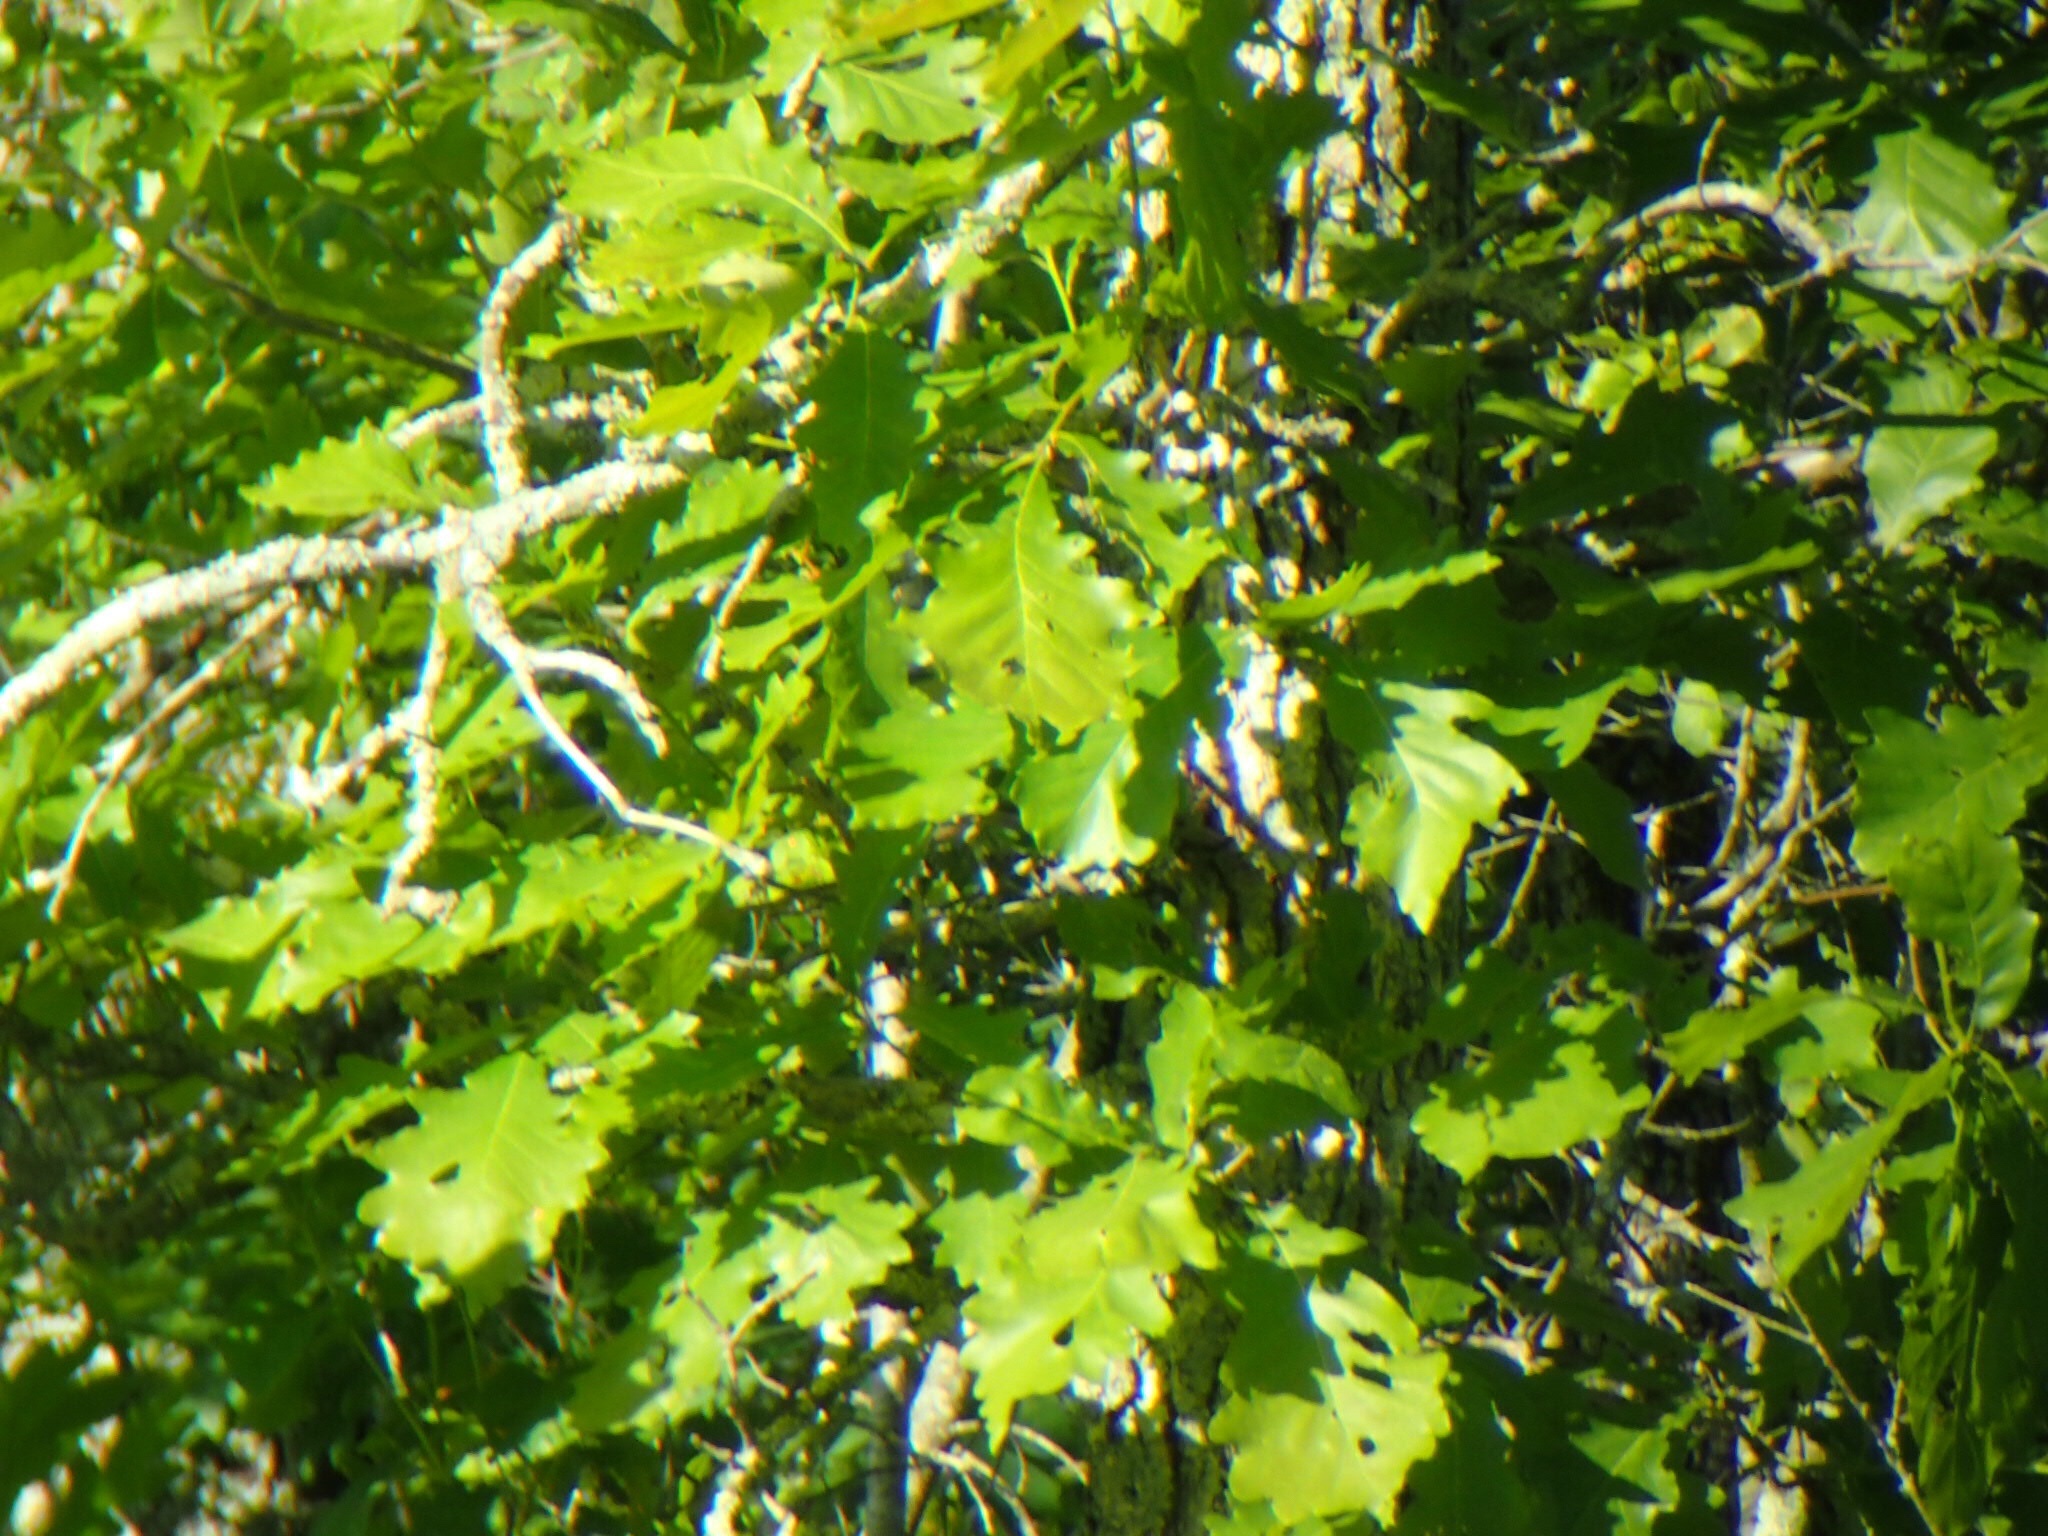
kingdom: Plantae
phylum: Tracheophyta
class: Magnoliopsida
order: Fagales
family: Fagaceae
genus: Quercus
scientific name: Quercus bicolor
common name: Swamp white oak
